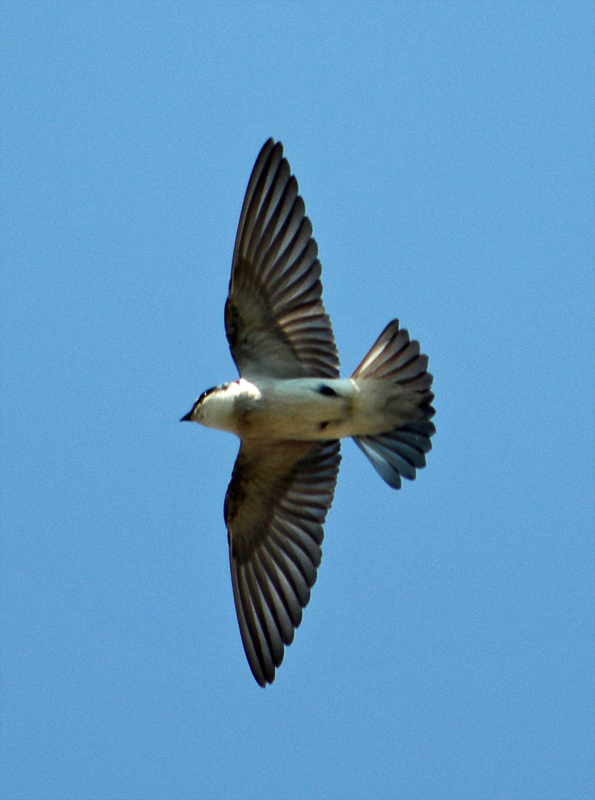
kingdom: Animalia
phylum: Chordata
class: Aves
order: Passeriformes
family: Hirundinidae
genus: Tachycineta
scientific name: Tachycineta albilinea
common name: Mangrove swallow
